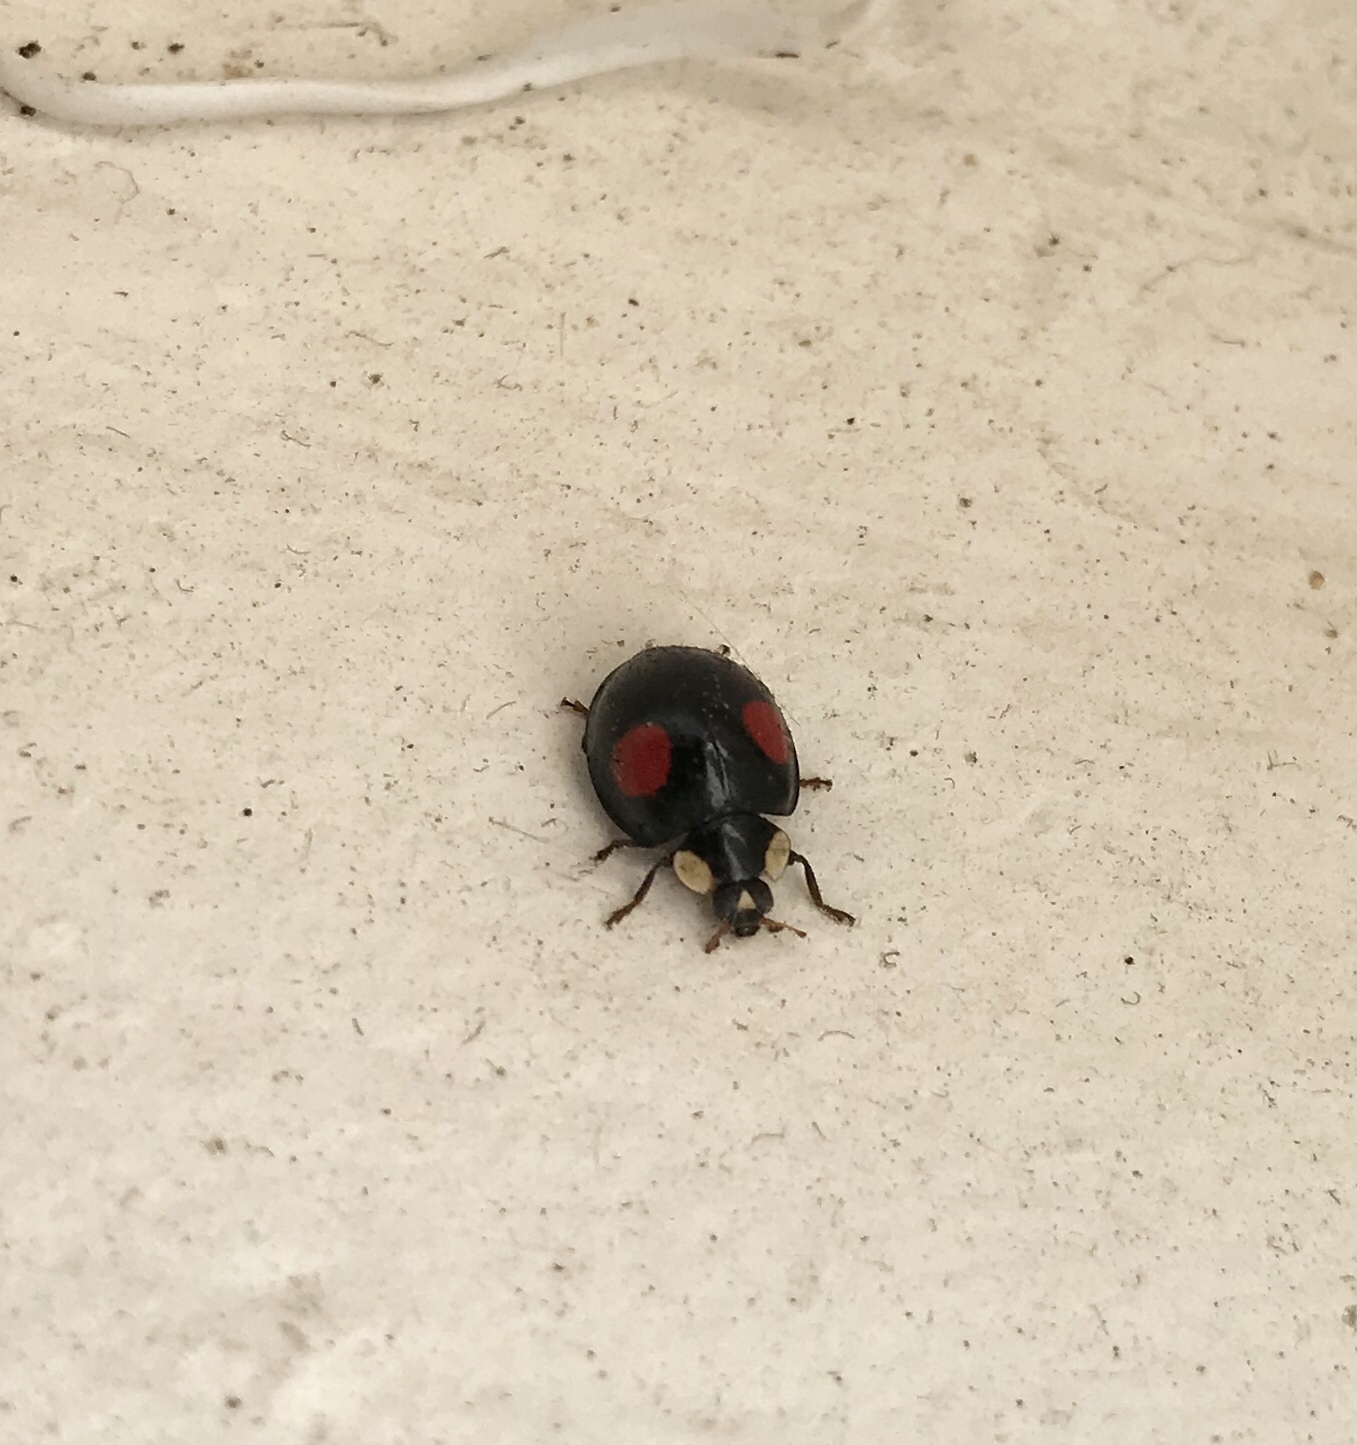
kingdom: Animalia
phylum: Arthropoda
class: Insecta
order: Coleoptera
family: Coccinellidae
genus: Harmonia
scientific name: Harmonia axyridis
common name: Harlequin ladybird
